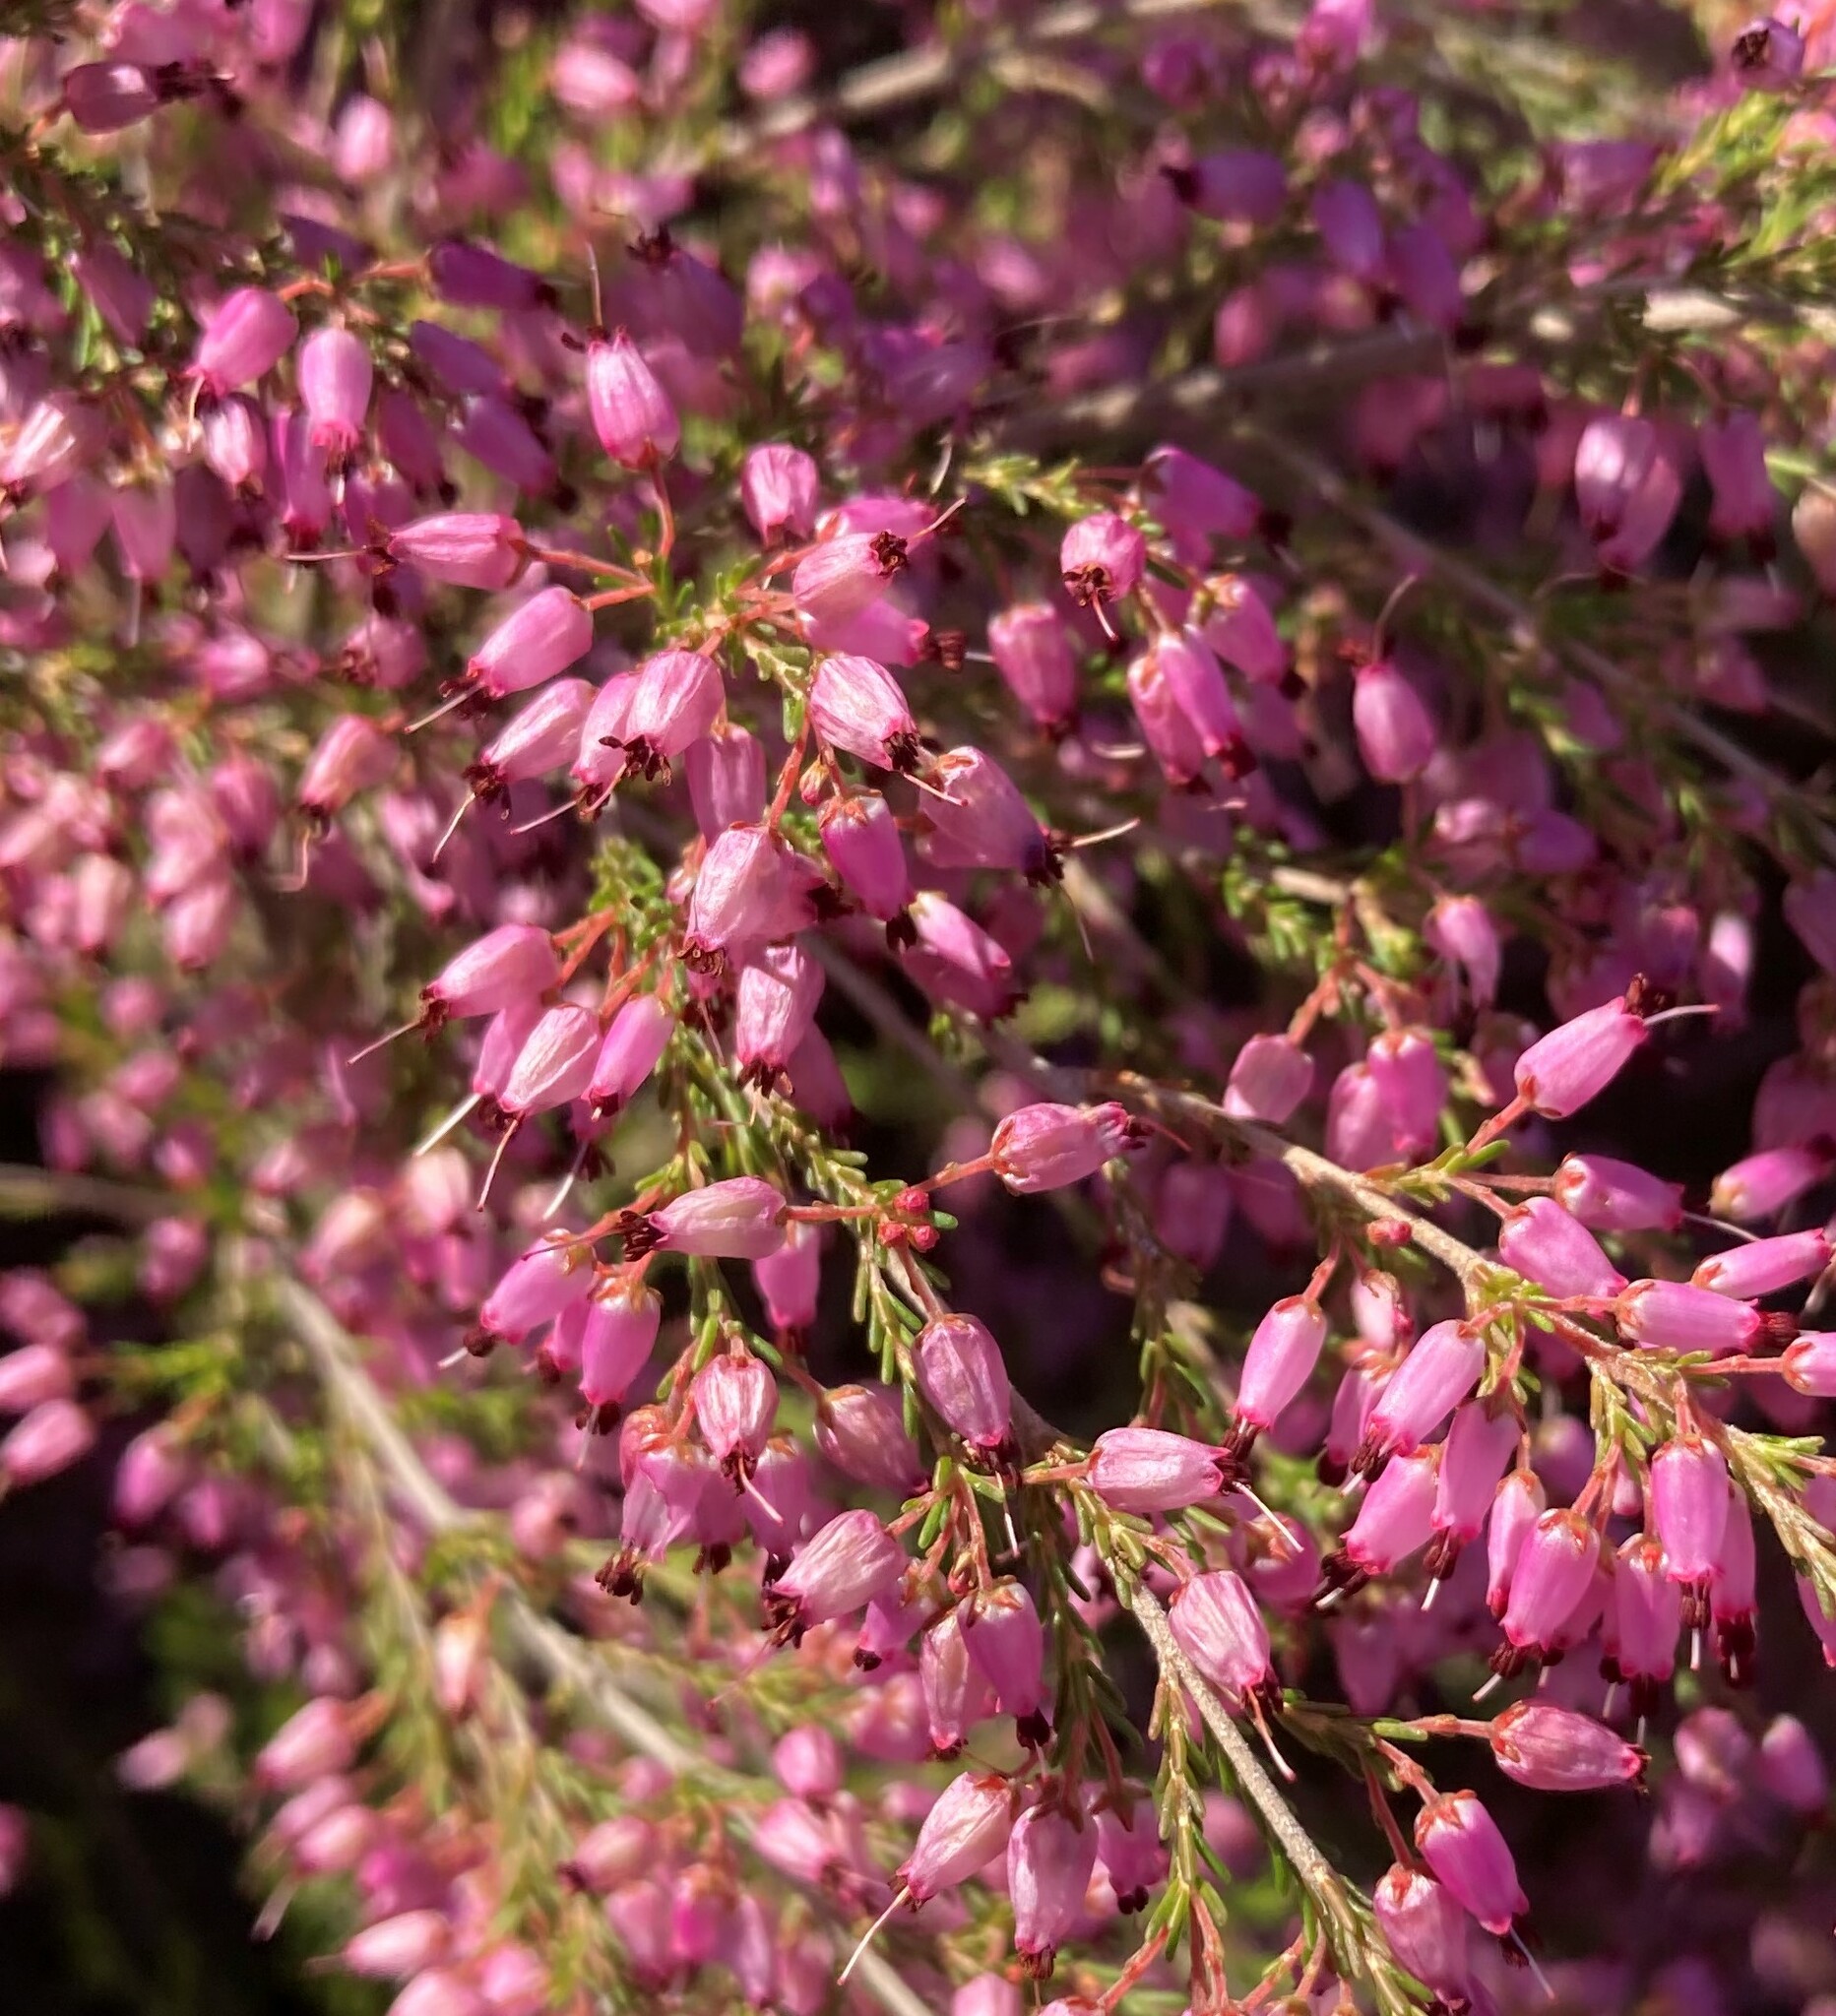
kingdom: Plantae
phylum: Tracheophyta
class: Magnoliopsida
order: Ericales
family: Ericaceae
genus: Erica
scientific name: Erica nutans
